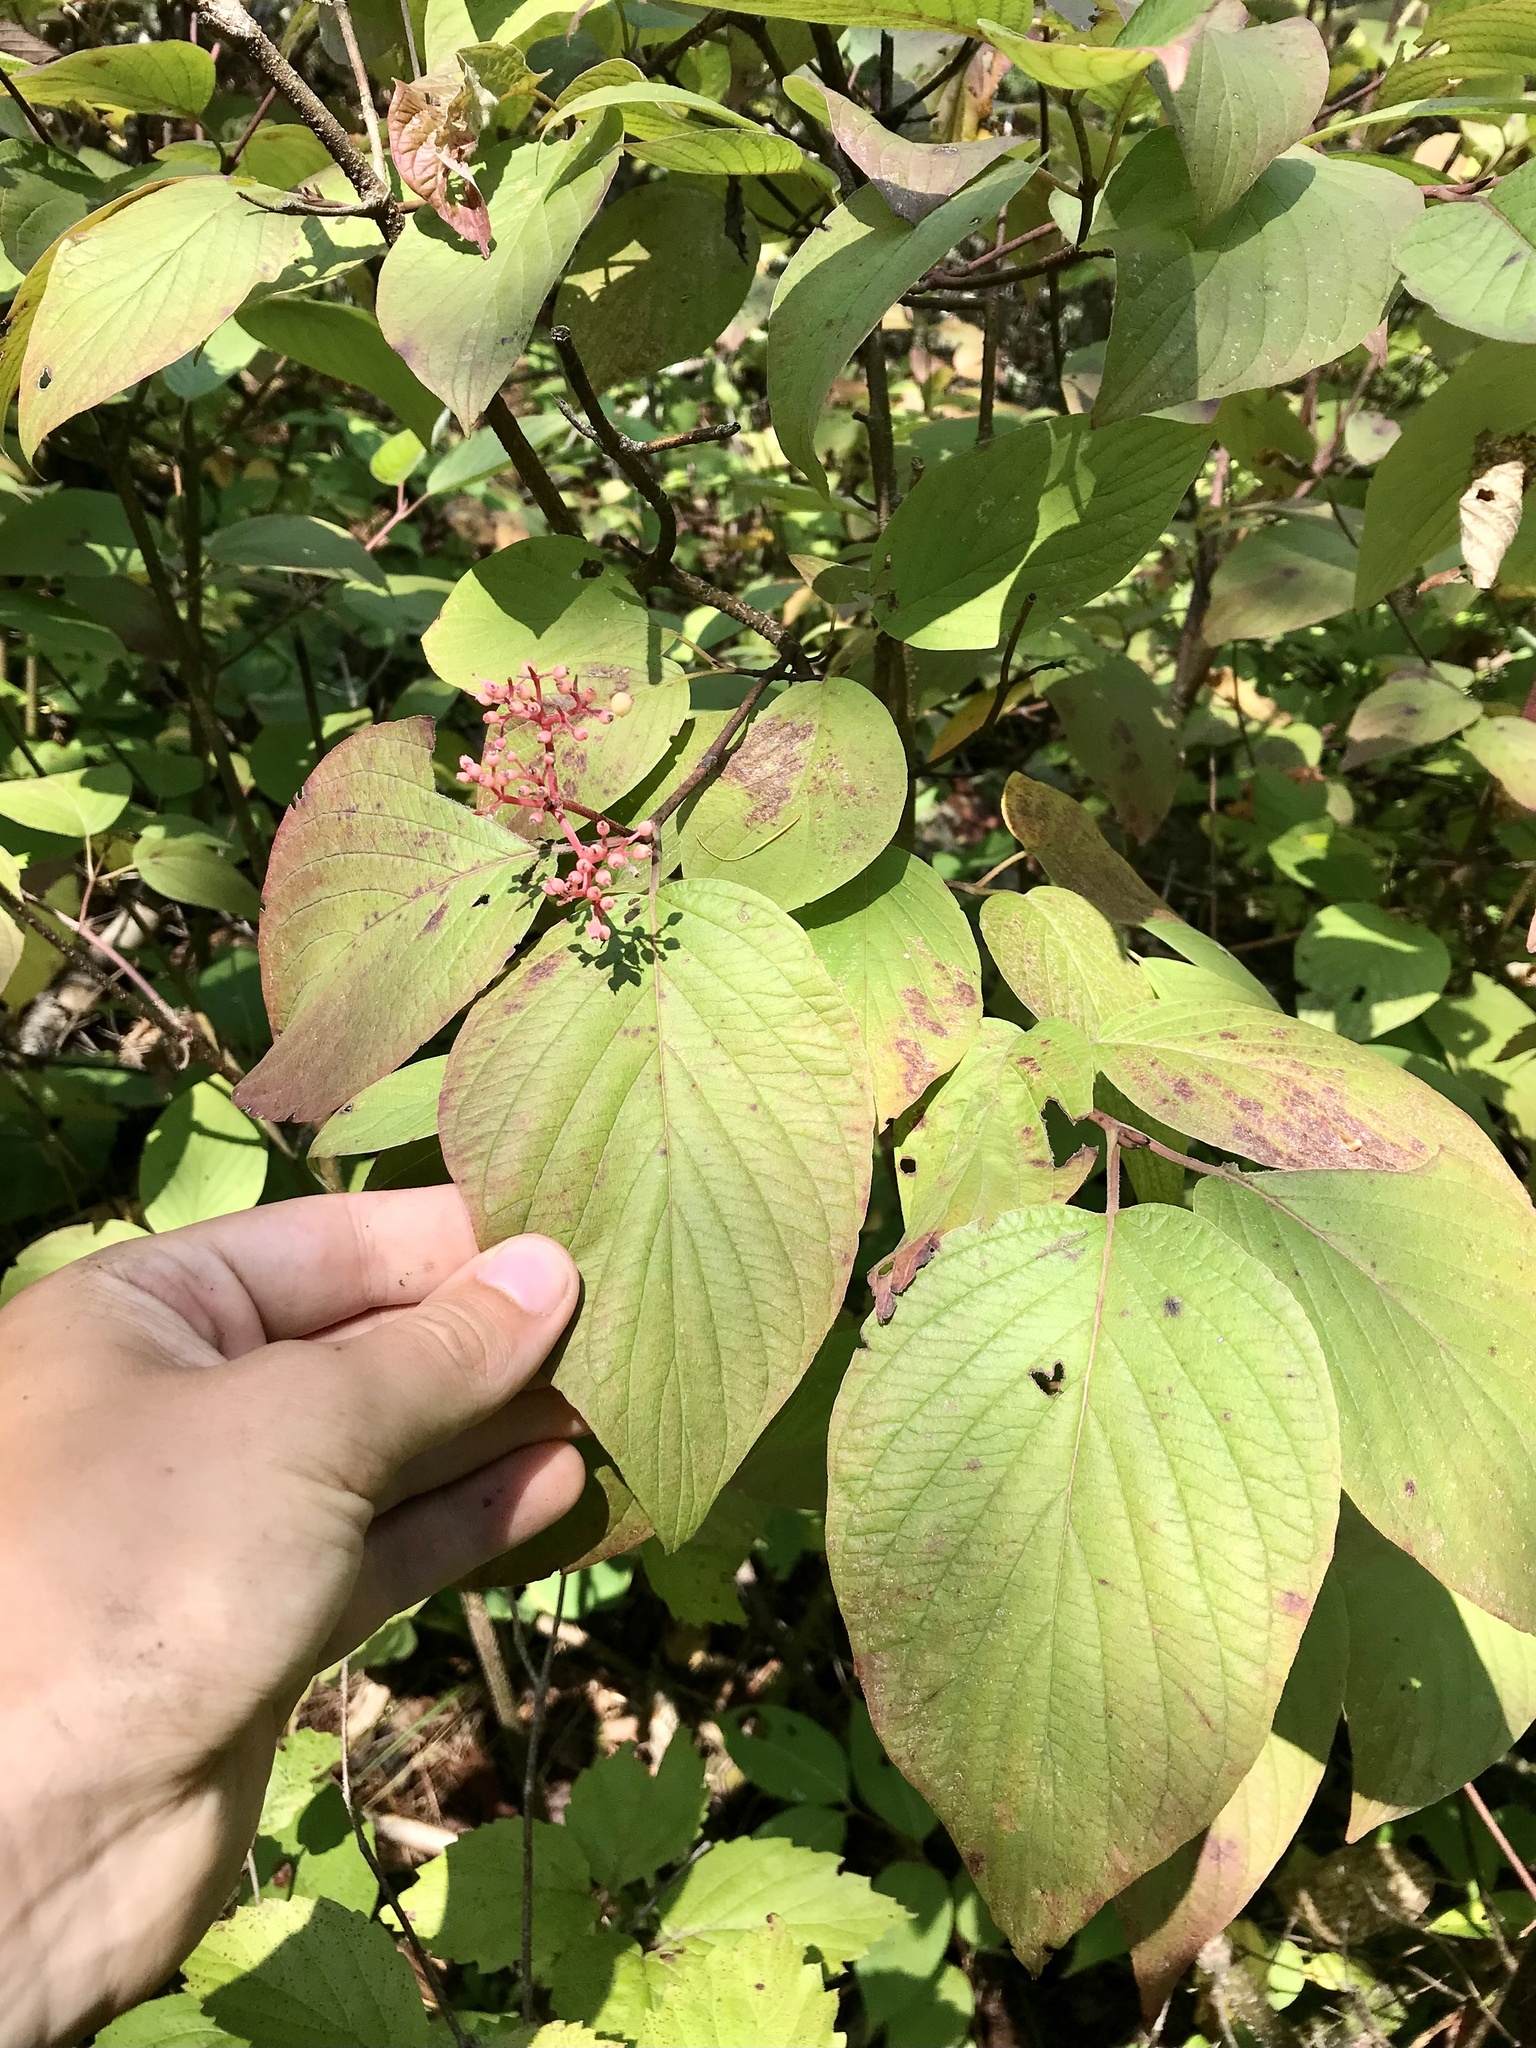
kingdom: Plantae
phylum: Tracheophyta
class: Magnoliopsida
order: Cornales
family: Cornaceae
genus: Cornus
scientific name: Cornus rugosa
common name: Round-leaf dogwood
